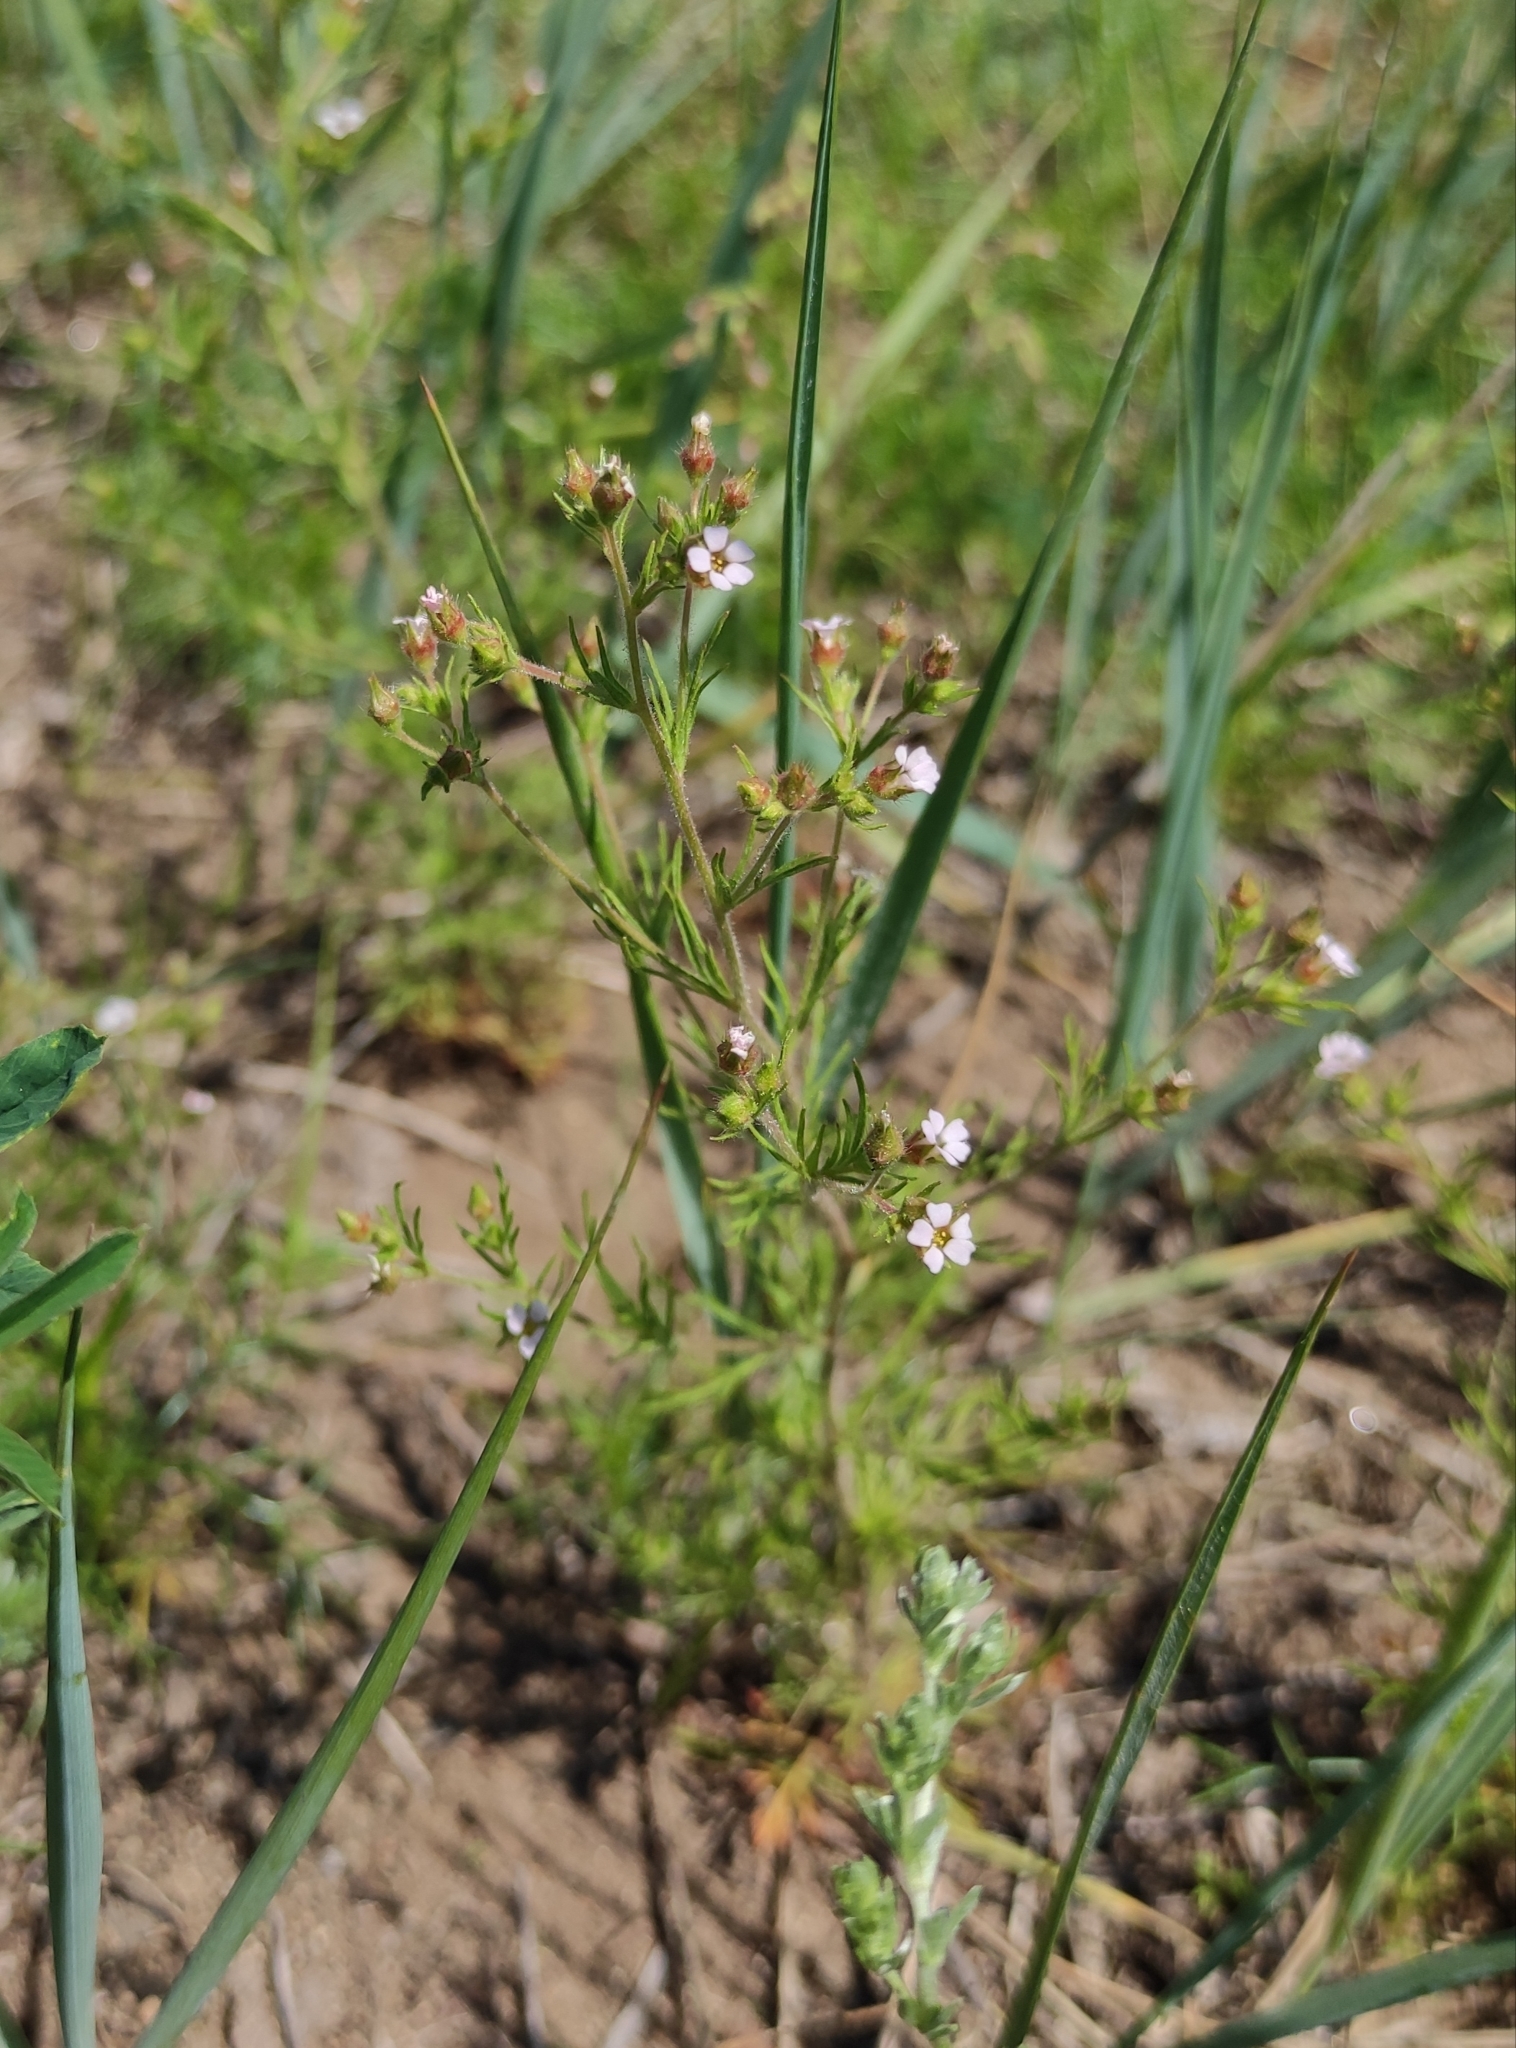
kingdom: Plantae
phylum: Tracheophyta
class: Magnoliopsida
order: Rosales
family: Rosaceae
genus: Chamaerhodos
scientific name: Chamaerhodos erecta
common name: American chamaerhodos
